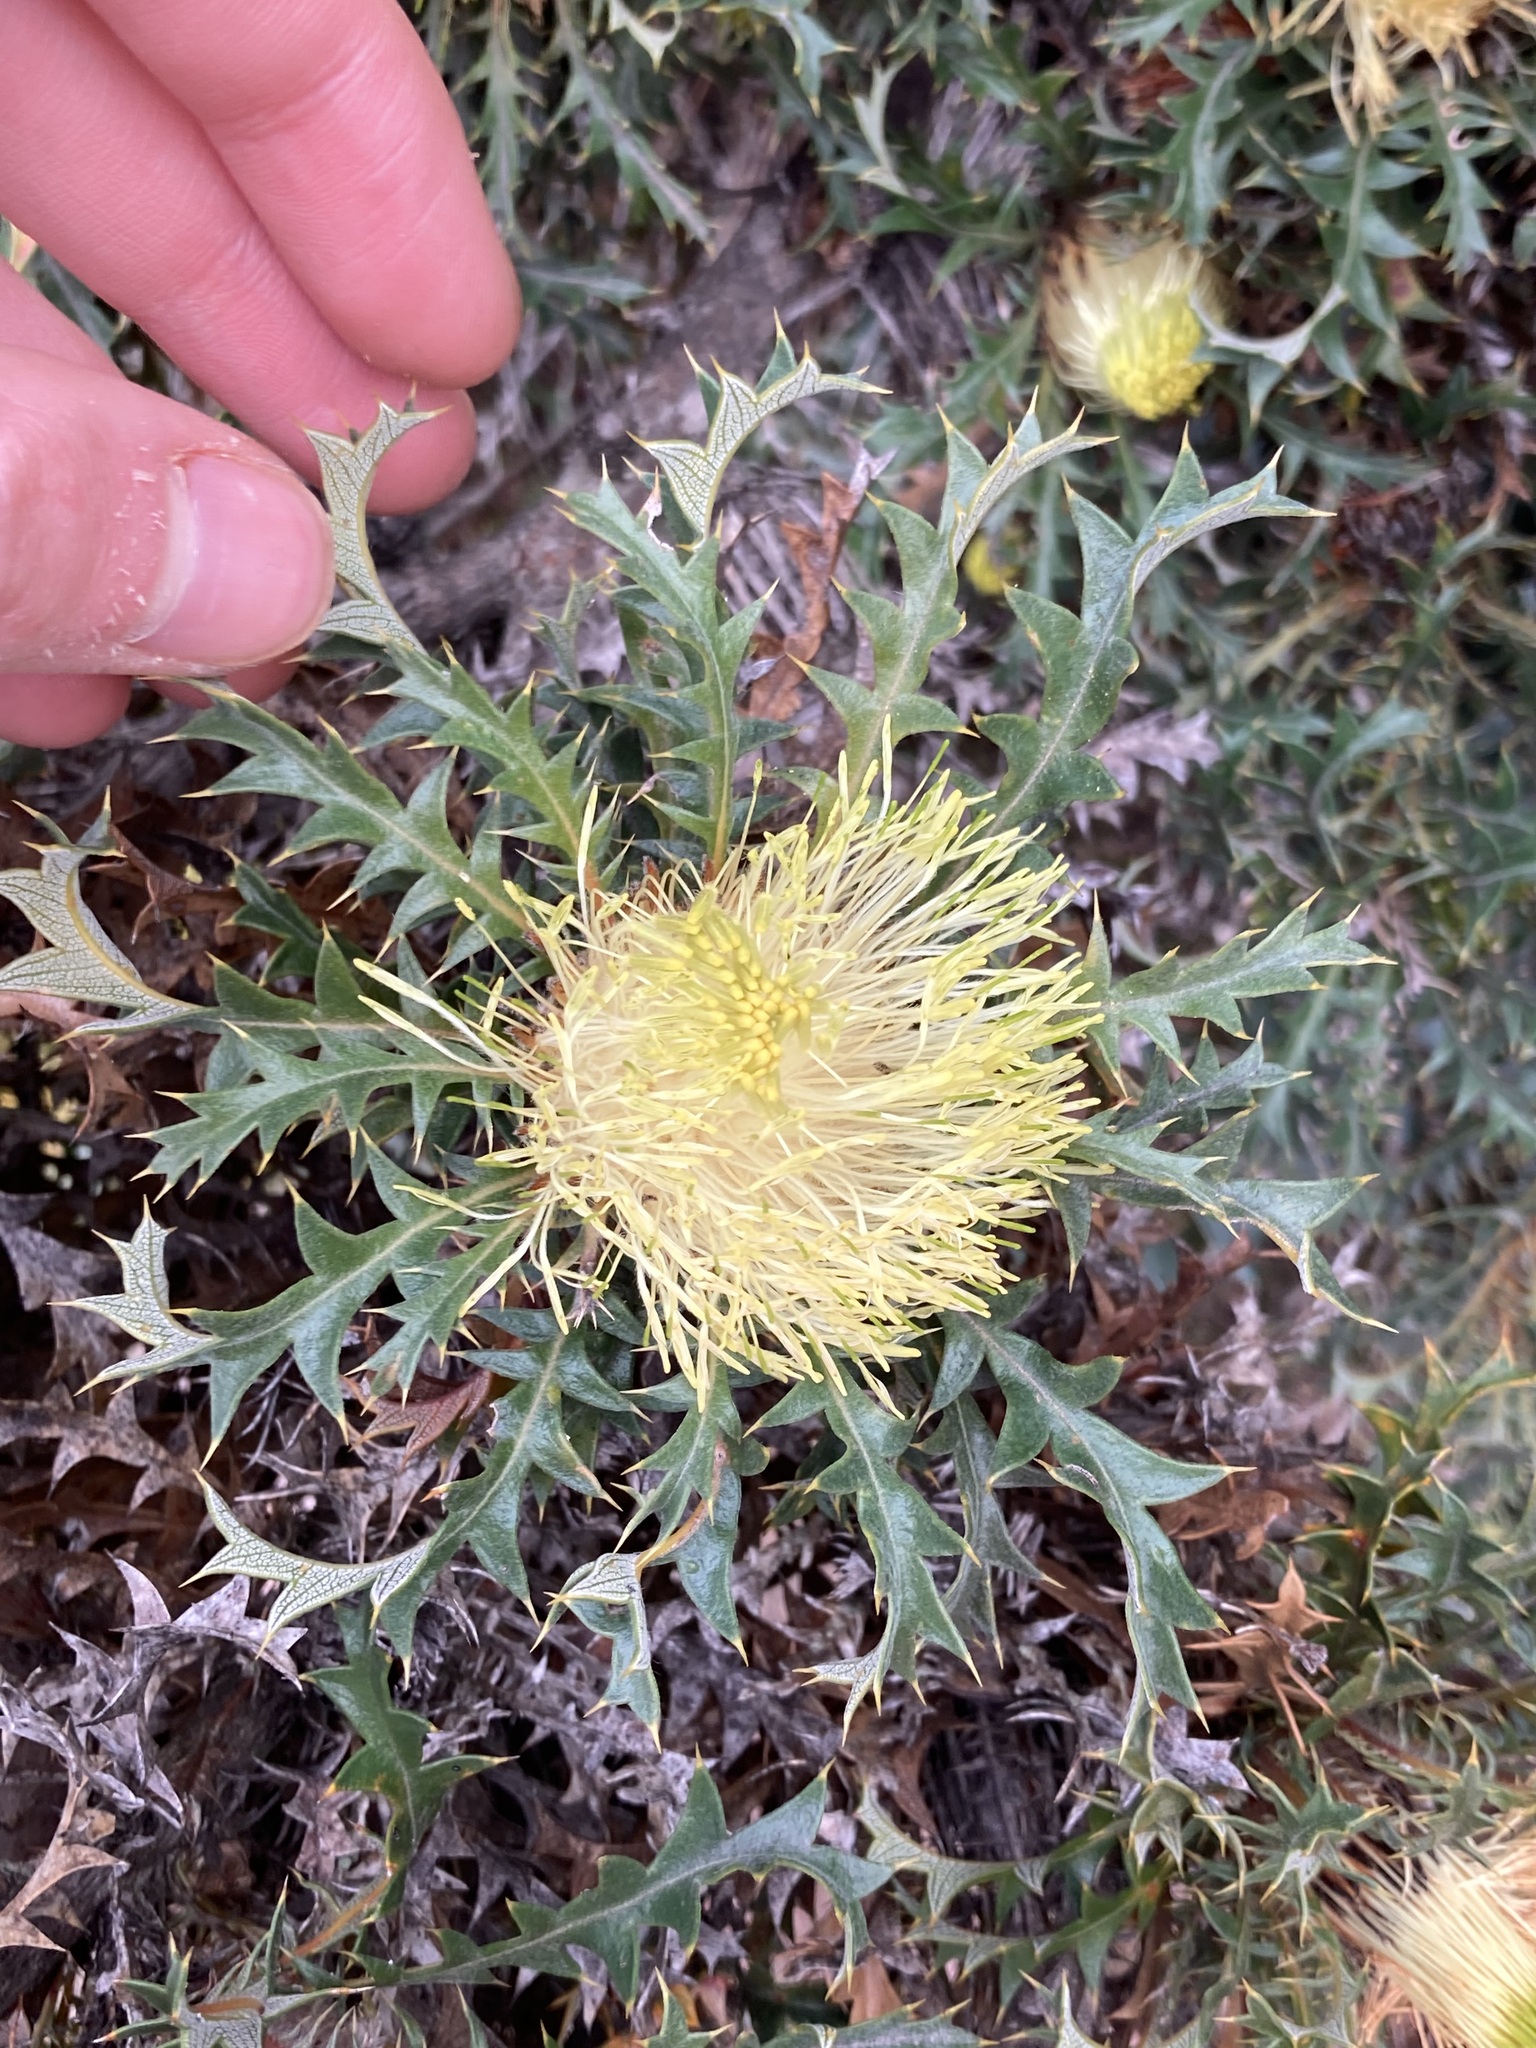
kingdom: Plantae
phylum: Tracheophyta
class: Magnoliopsida
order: Proteales
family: Proteaceae
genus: Banksia
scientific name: Banksia armata
